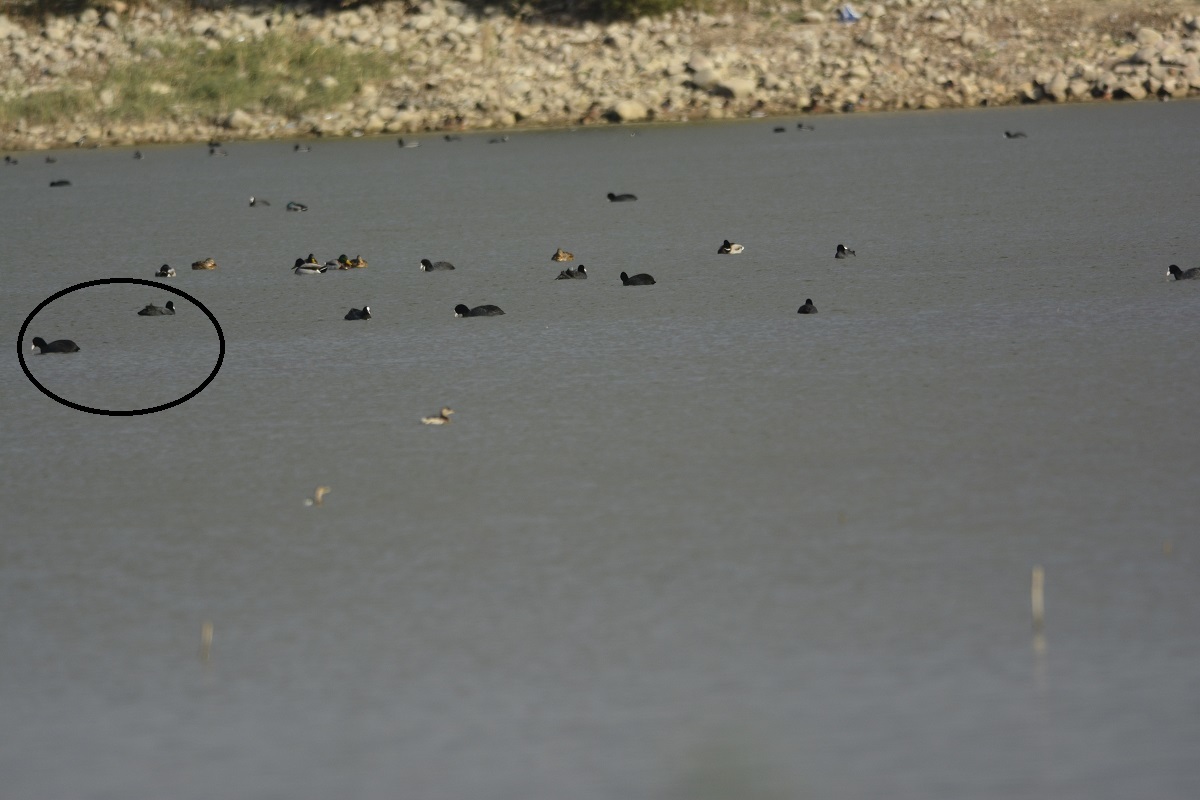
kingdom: Animalia
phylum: Chordata
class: Aves
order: Gruiformes
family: Rallidae
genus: Fulica
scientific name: Fulica atra
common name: Eurasian coot
